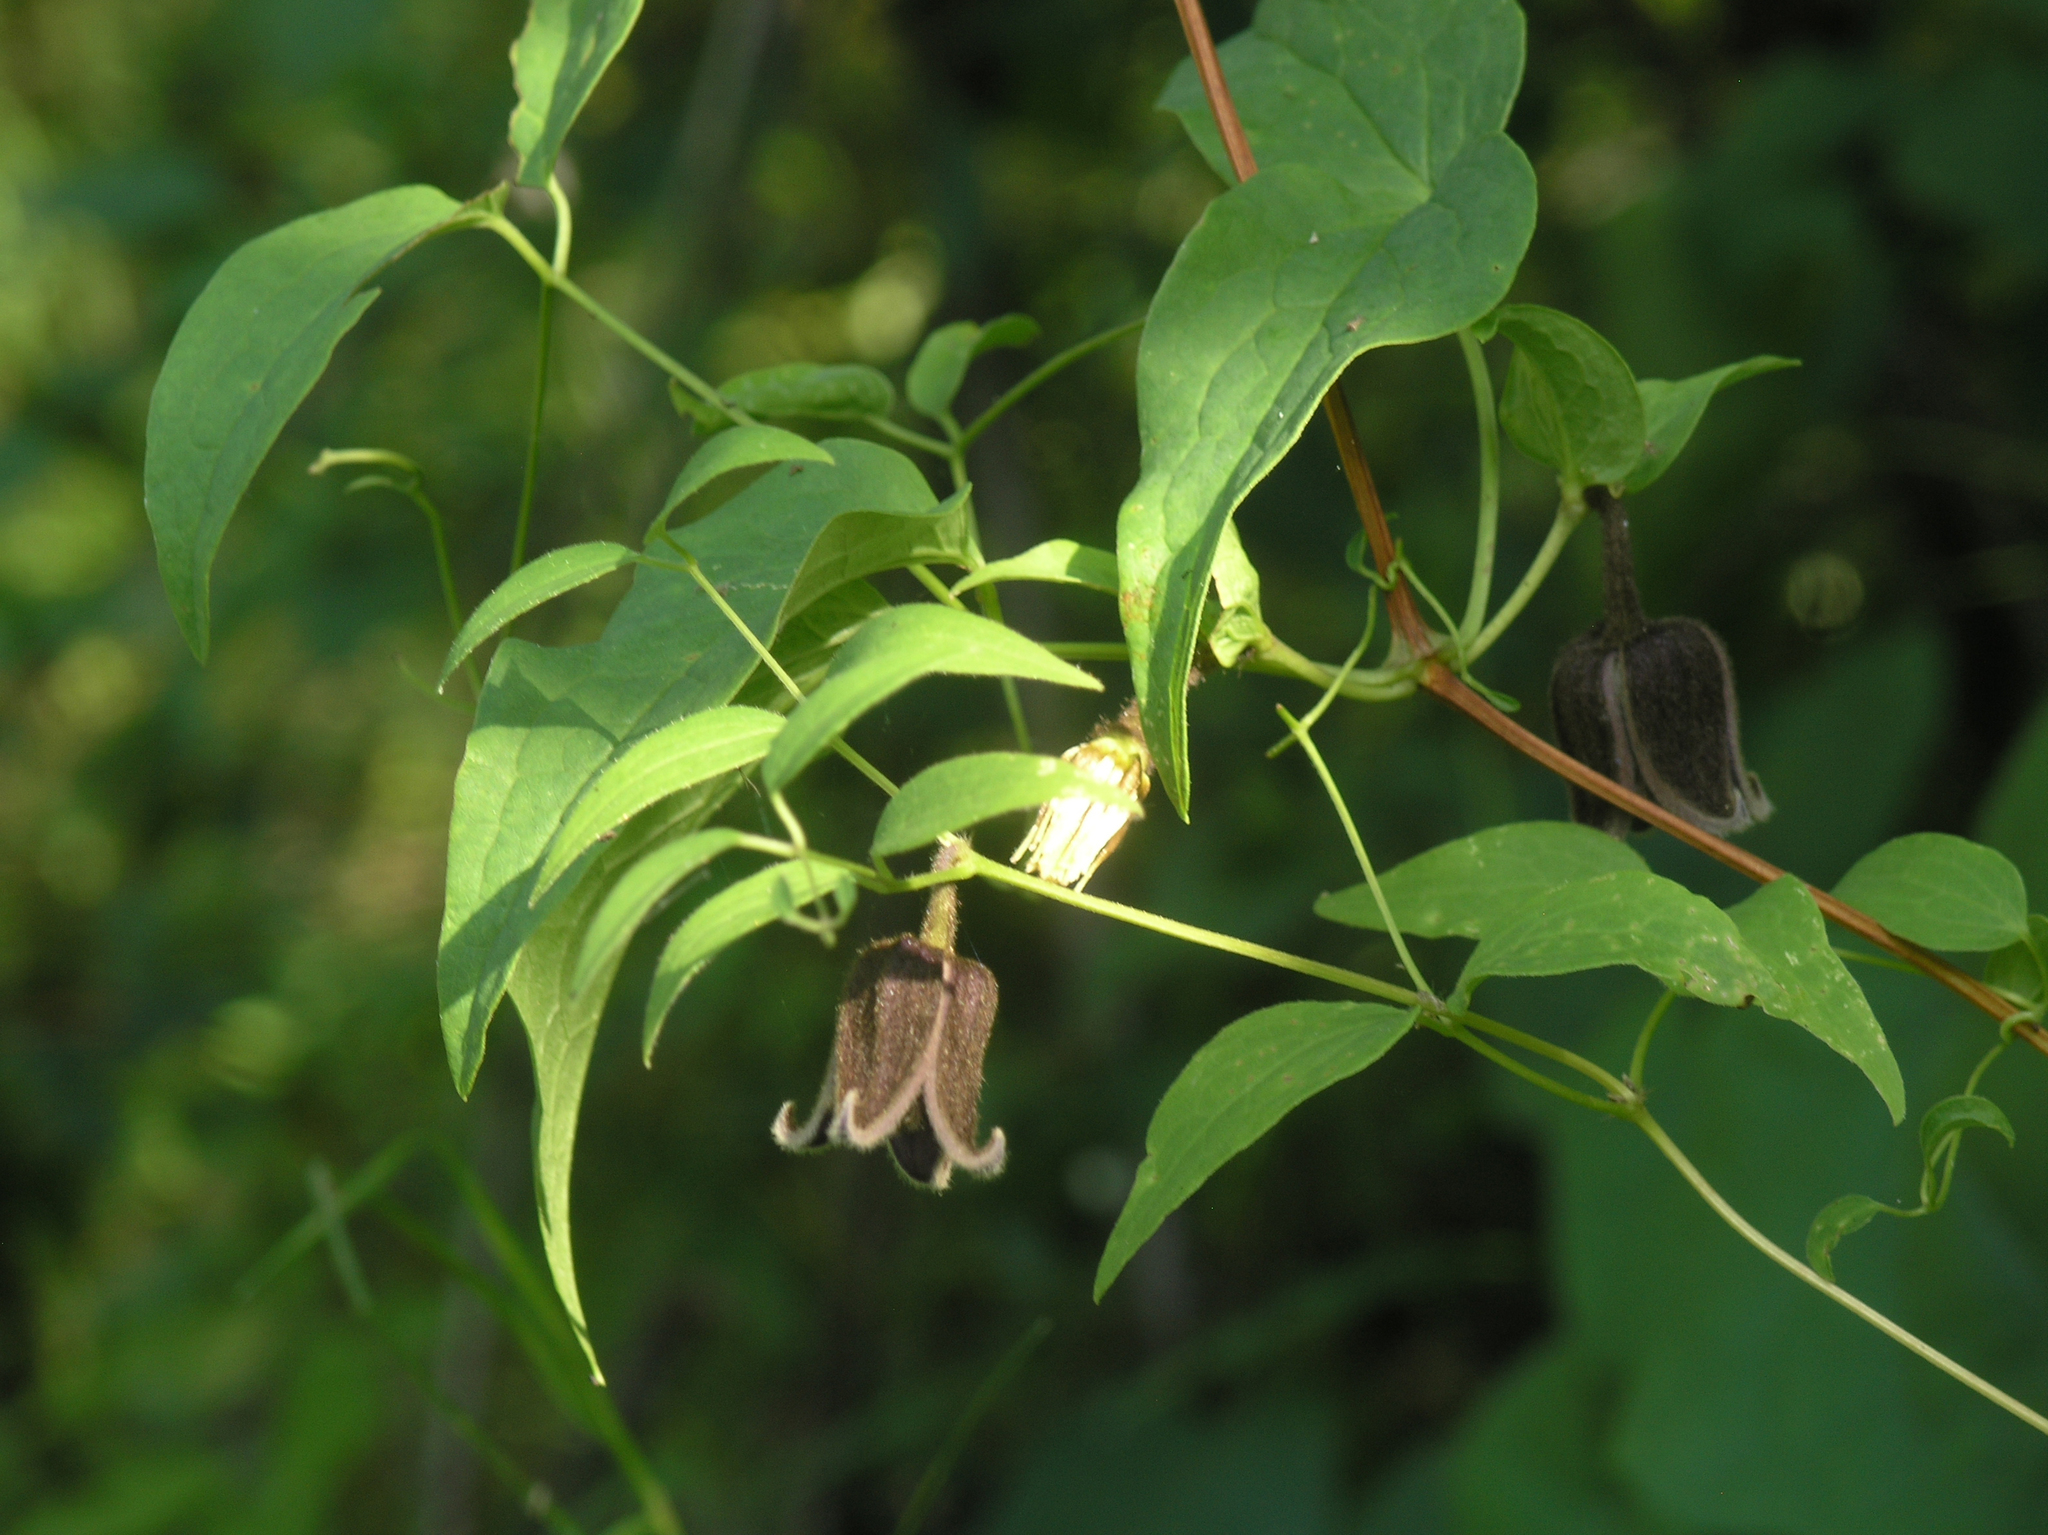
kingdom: Plantae
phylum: Tracheophyta
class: Magnoliopsida
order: Ranunculales
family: Ranunculaceae
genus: Clematis
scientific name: Clematis fusca
